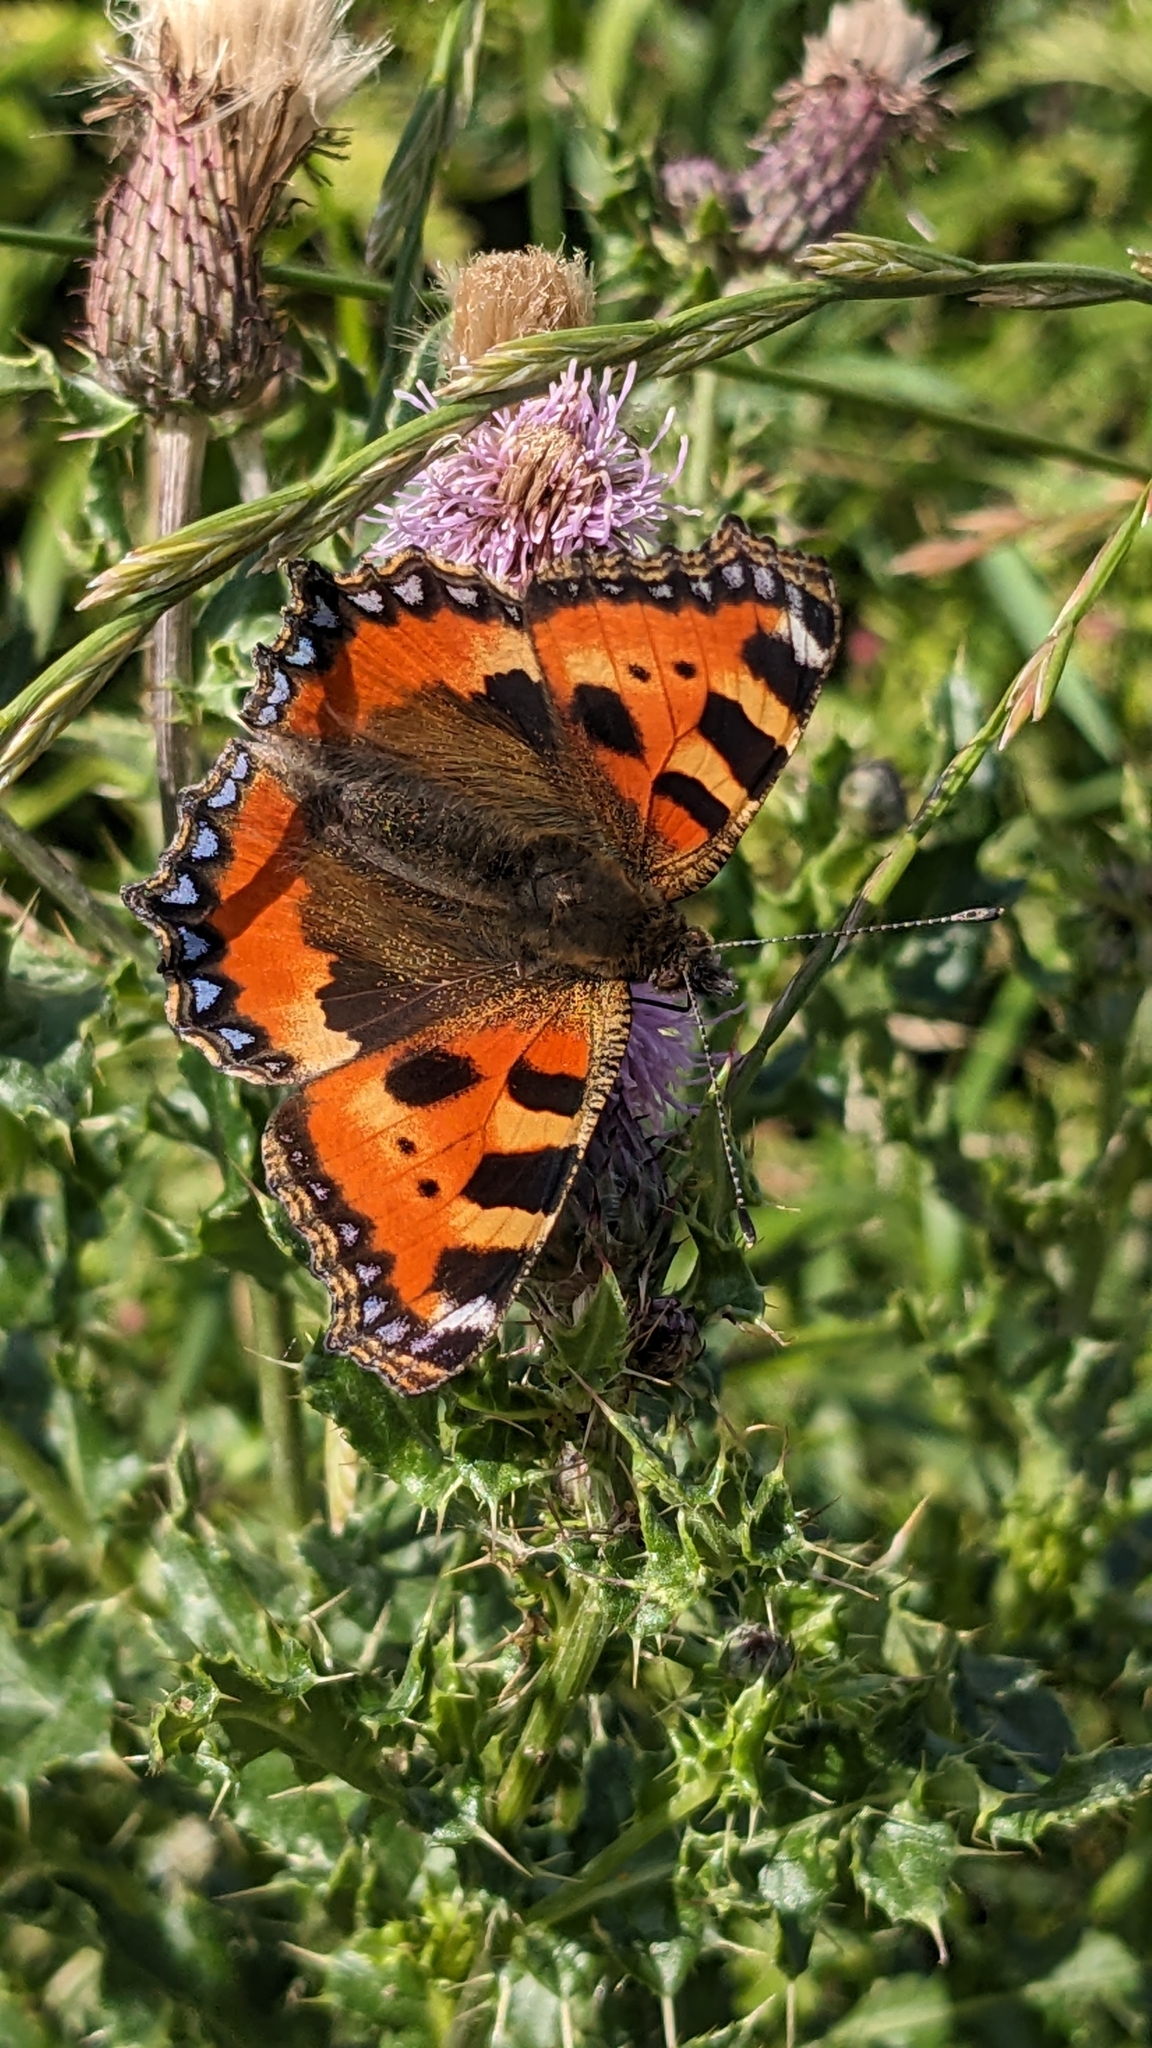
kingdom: Animalia
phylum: Arthropoda
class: Insecta
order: Lepidoptera
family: Nymphalidae
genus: Aglais
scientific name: Aglais urticae
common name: Small tortoiseshell
